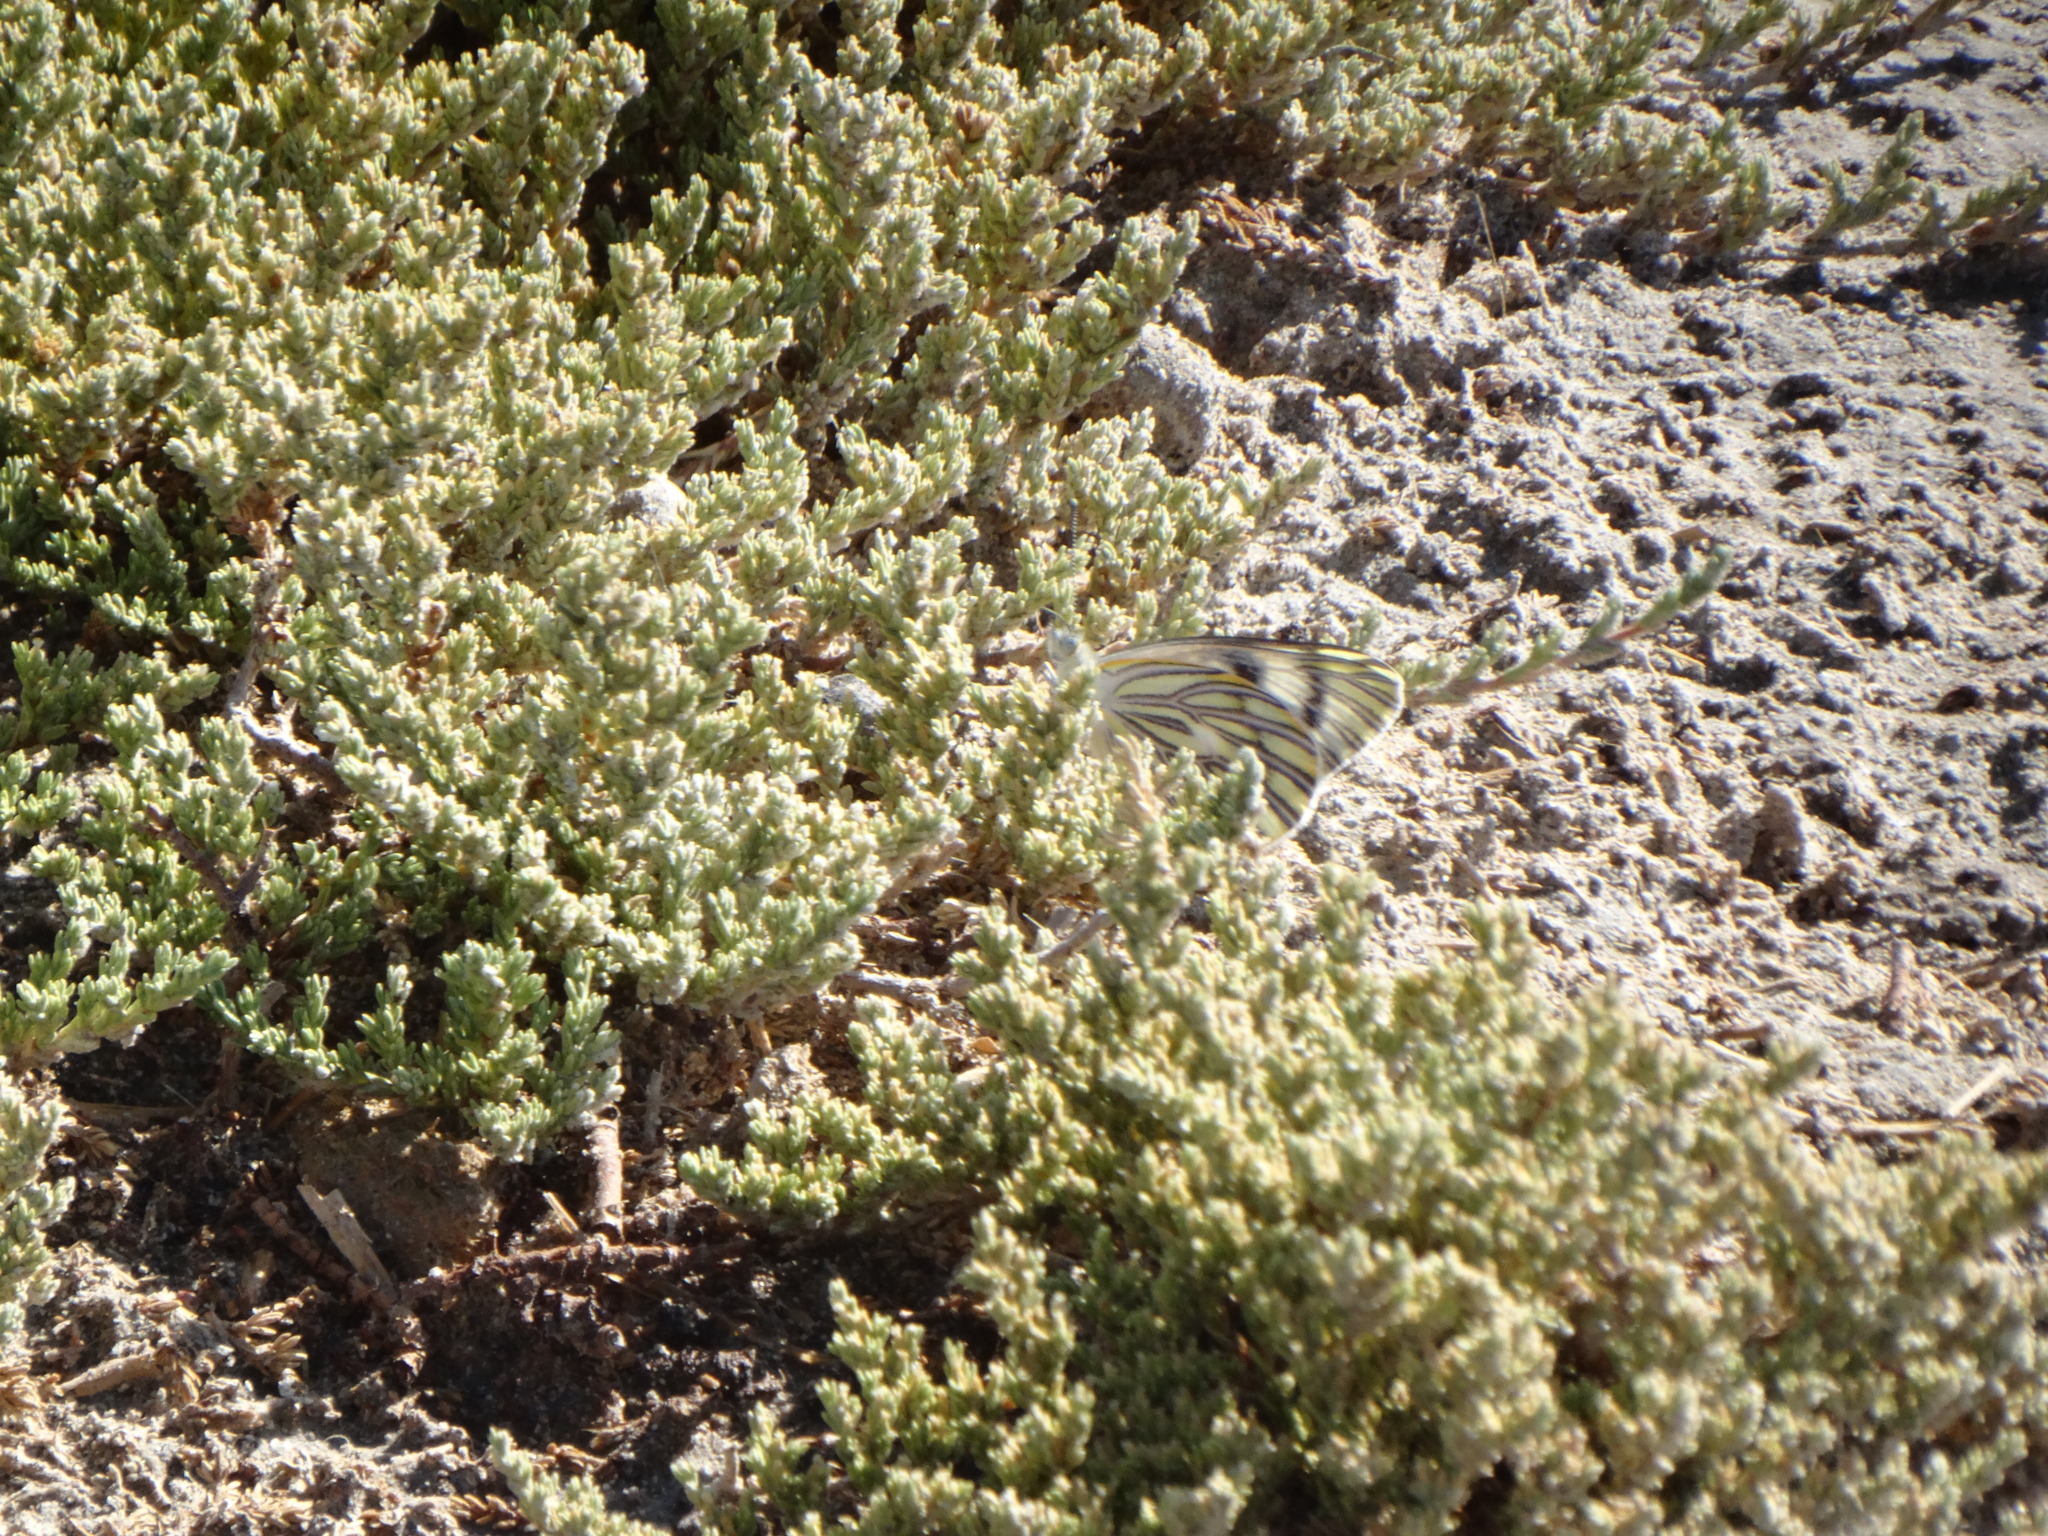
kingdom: Animalia
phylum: Arthropoda
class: Insecta
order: Lepidoptera
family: Pieridae
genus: Tatochila
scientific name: Tatochila mercedis
